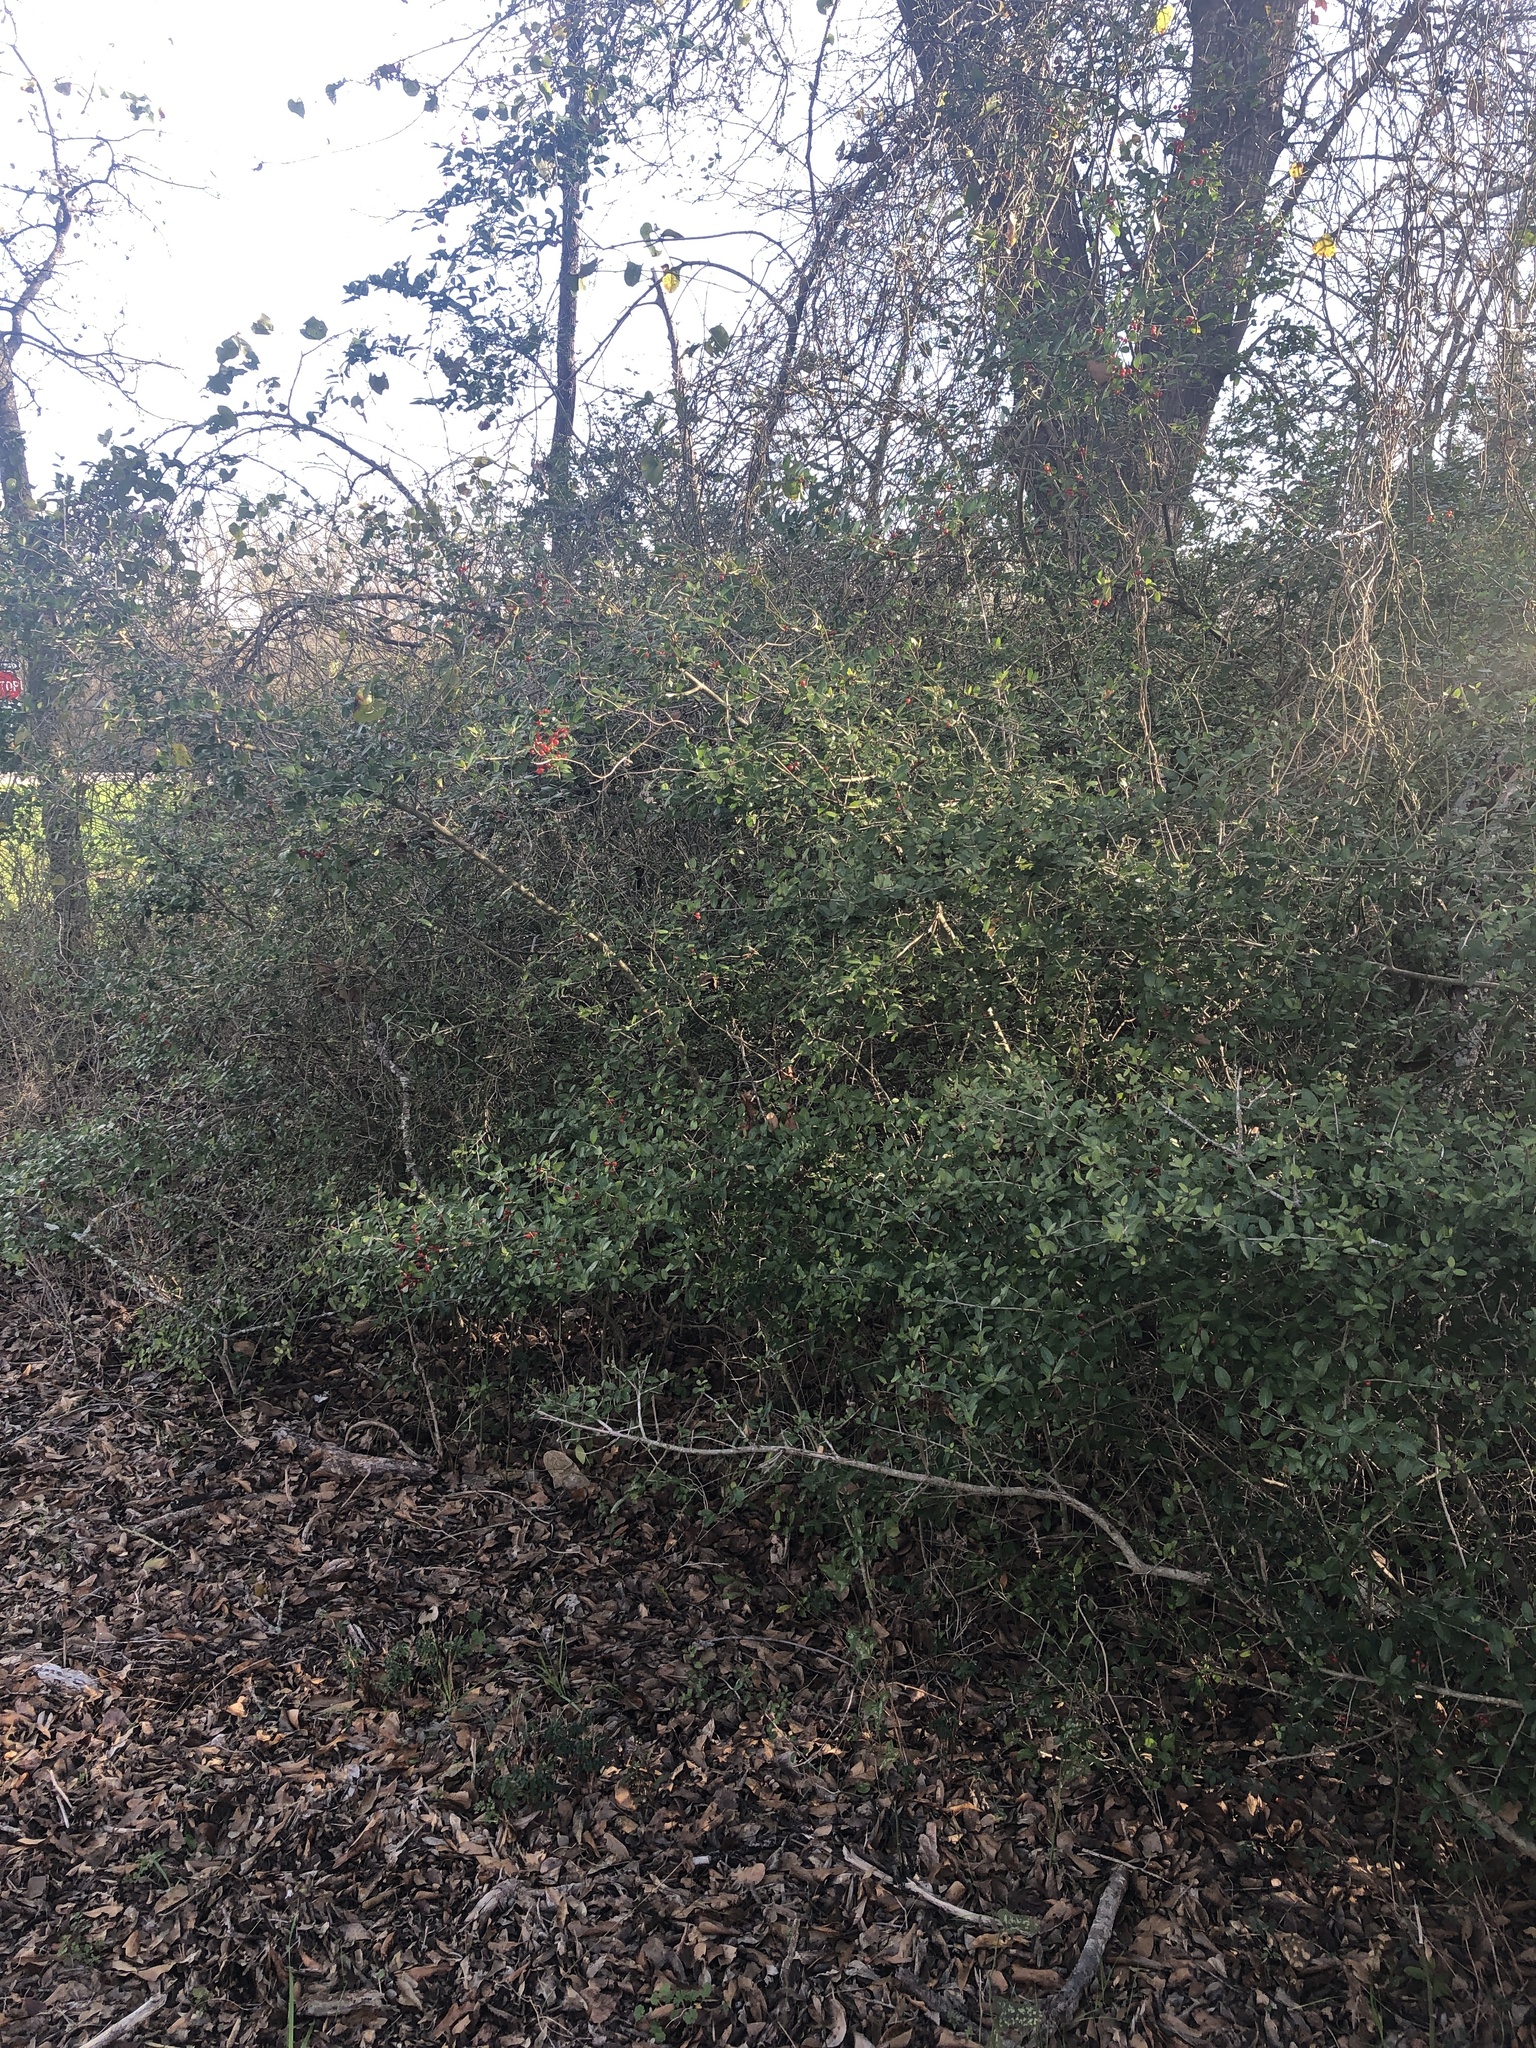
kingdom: Plantae
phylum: Tracheophyta
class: Magnoliopsida
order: Aquifoliales
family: Aquifoliaceae
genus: Ilex
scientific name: Ilex vomitoria
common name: Yaupon holly
